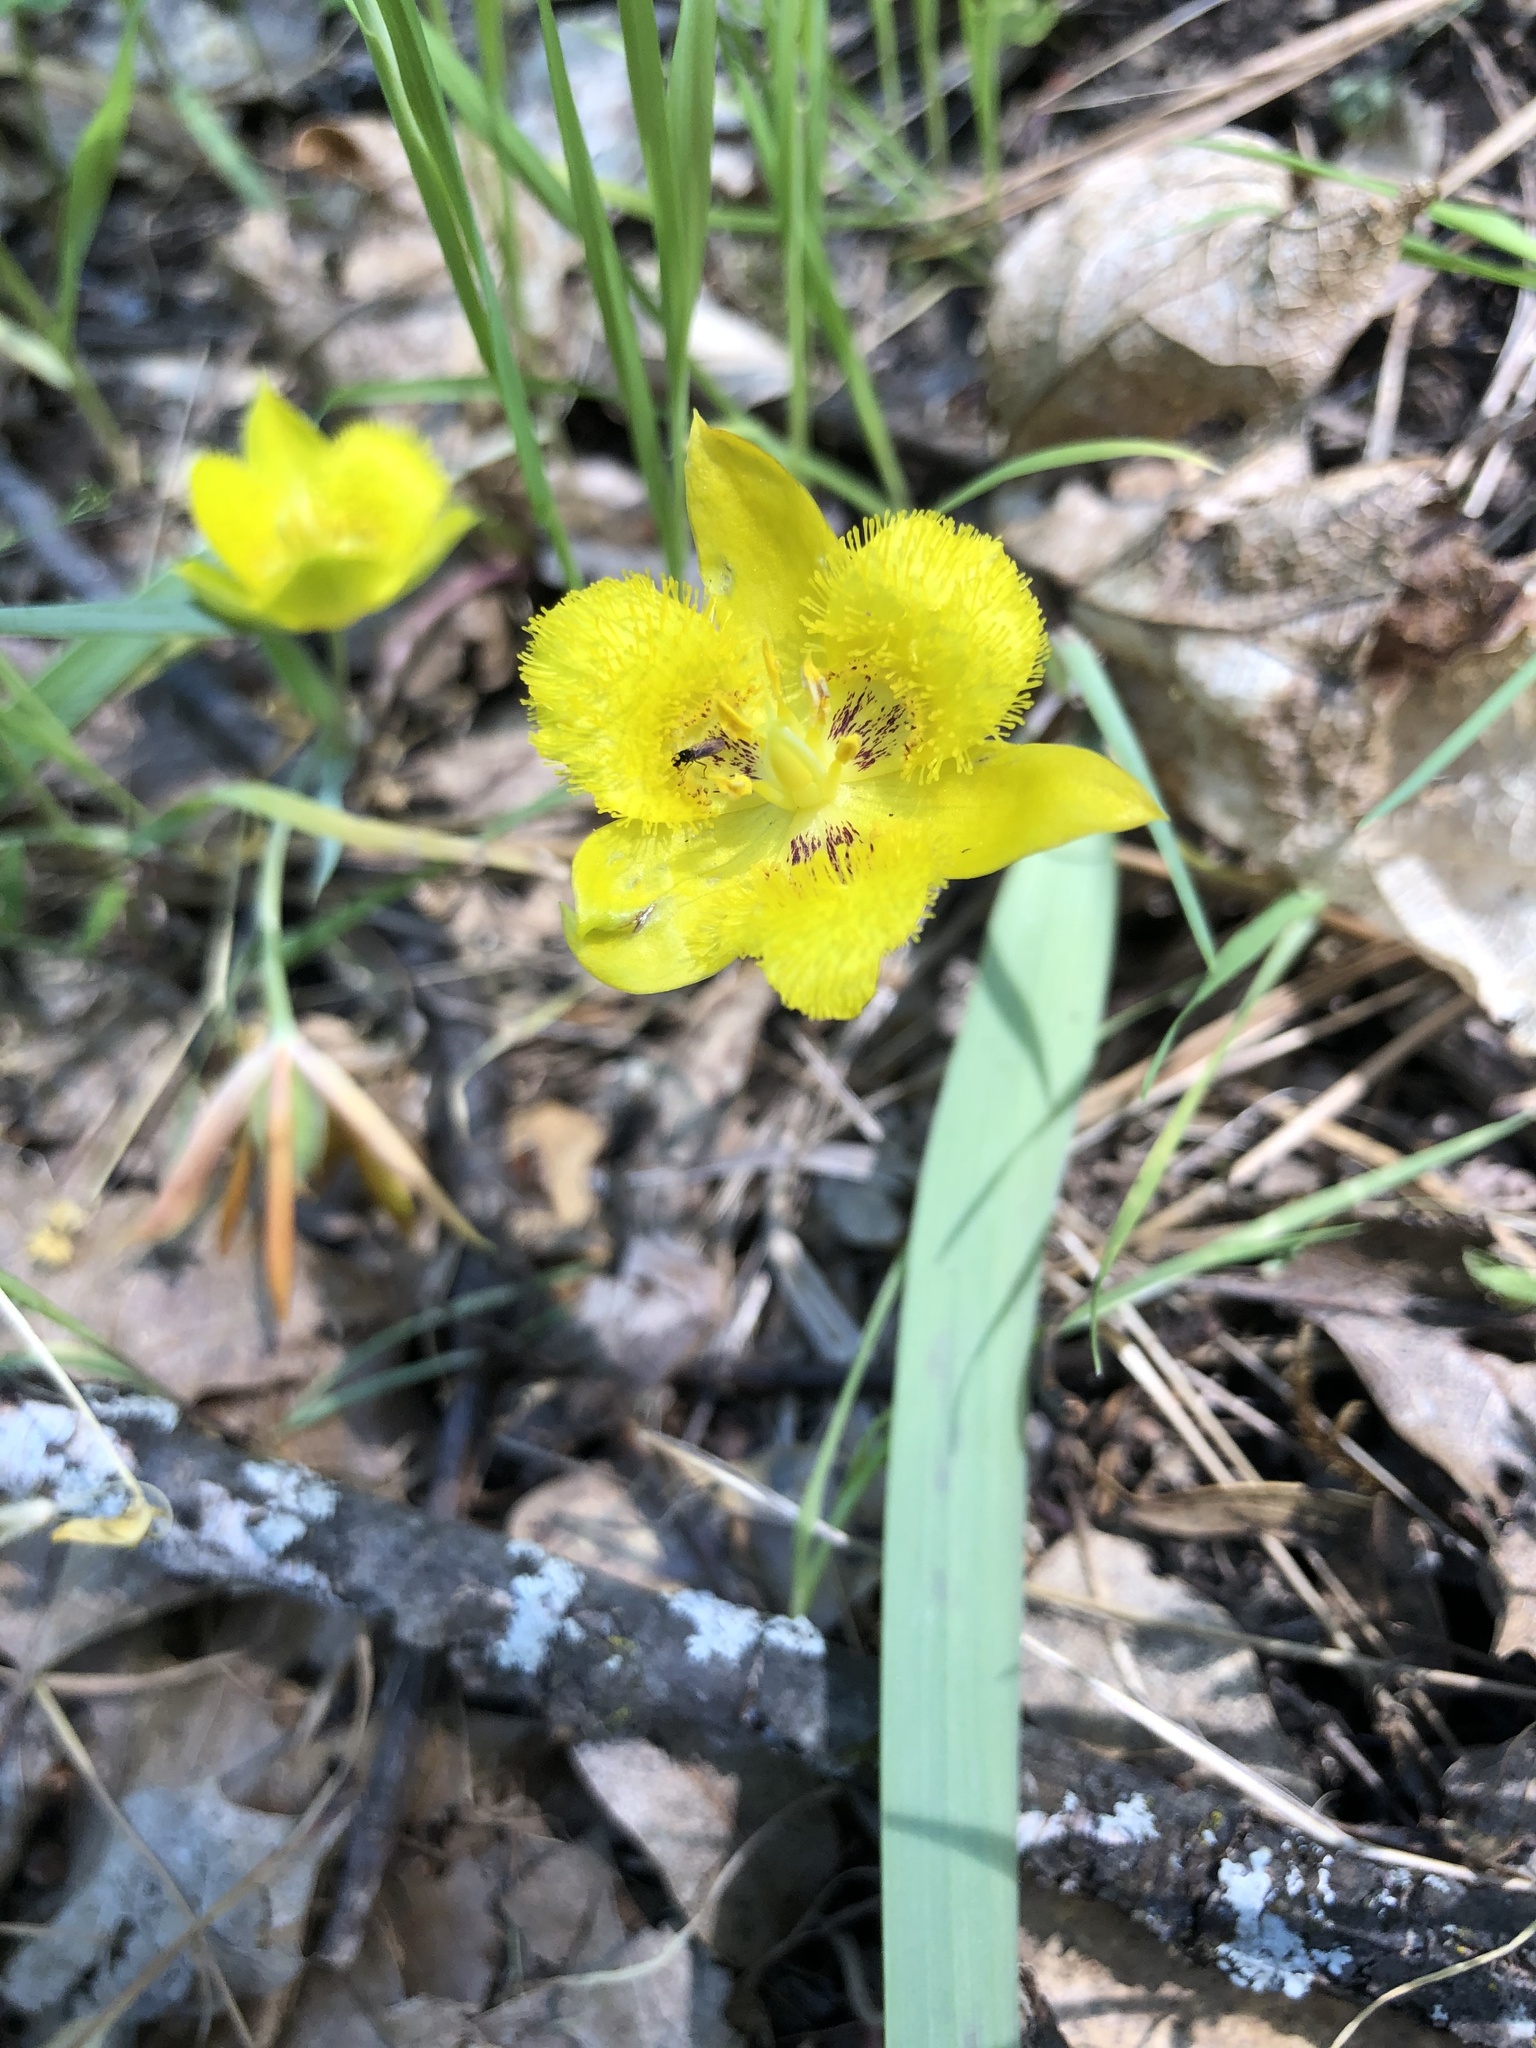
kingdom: Plantae
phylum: Tracheophyta
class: Liliopsida
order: Liliales
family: Liliaceae
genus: Calochortus
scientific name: Calochortus monophyllus
